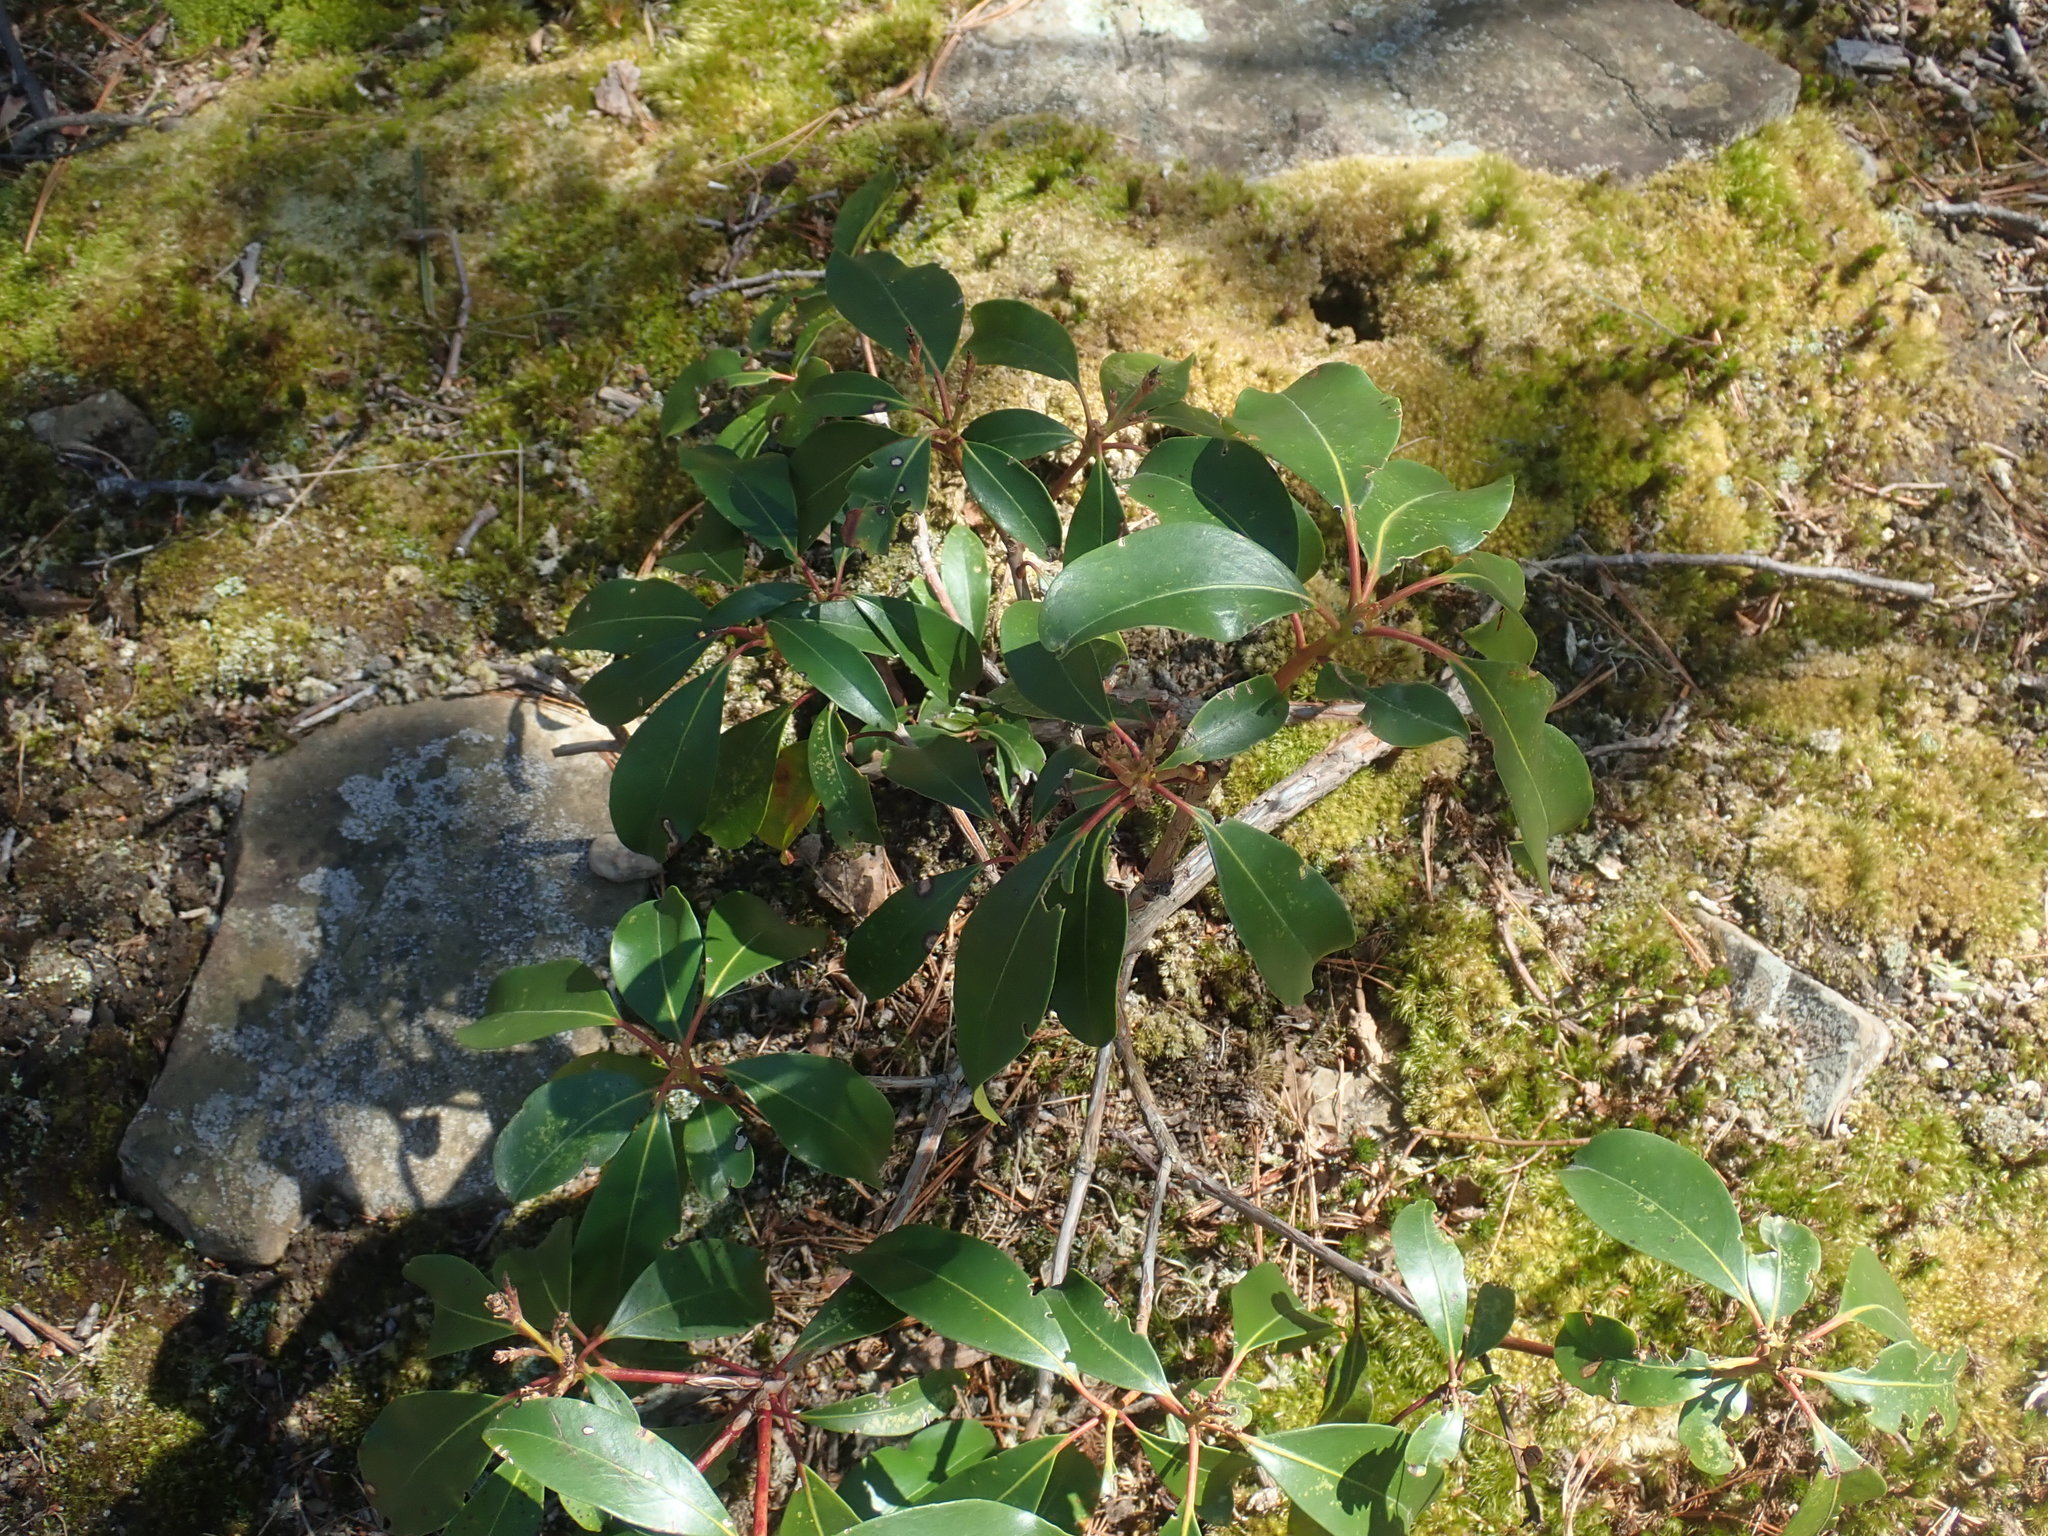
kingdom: Plantae
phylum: Tracheophyta
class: Magnoliopsida
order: Ericales
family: Ericaceae
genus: Kalmia
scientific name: Kalmia latifolia
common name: Mountain-laurel
